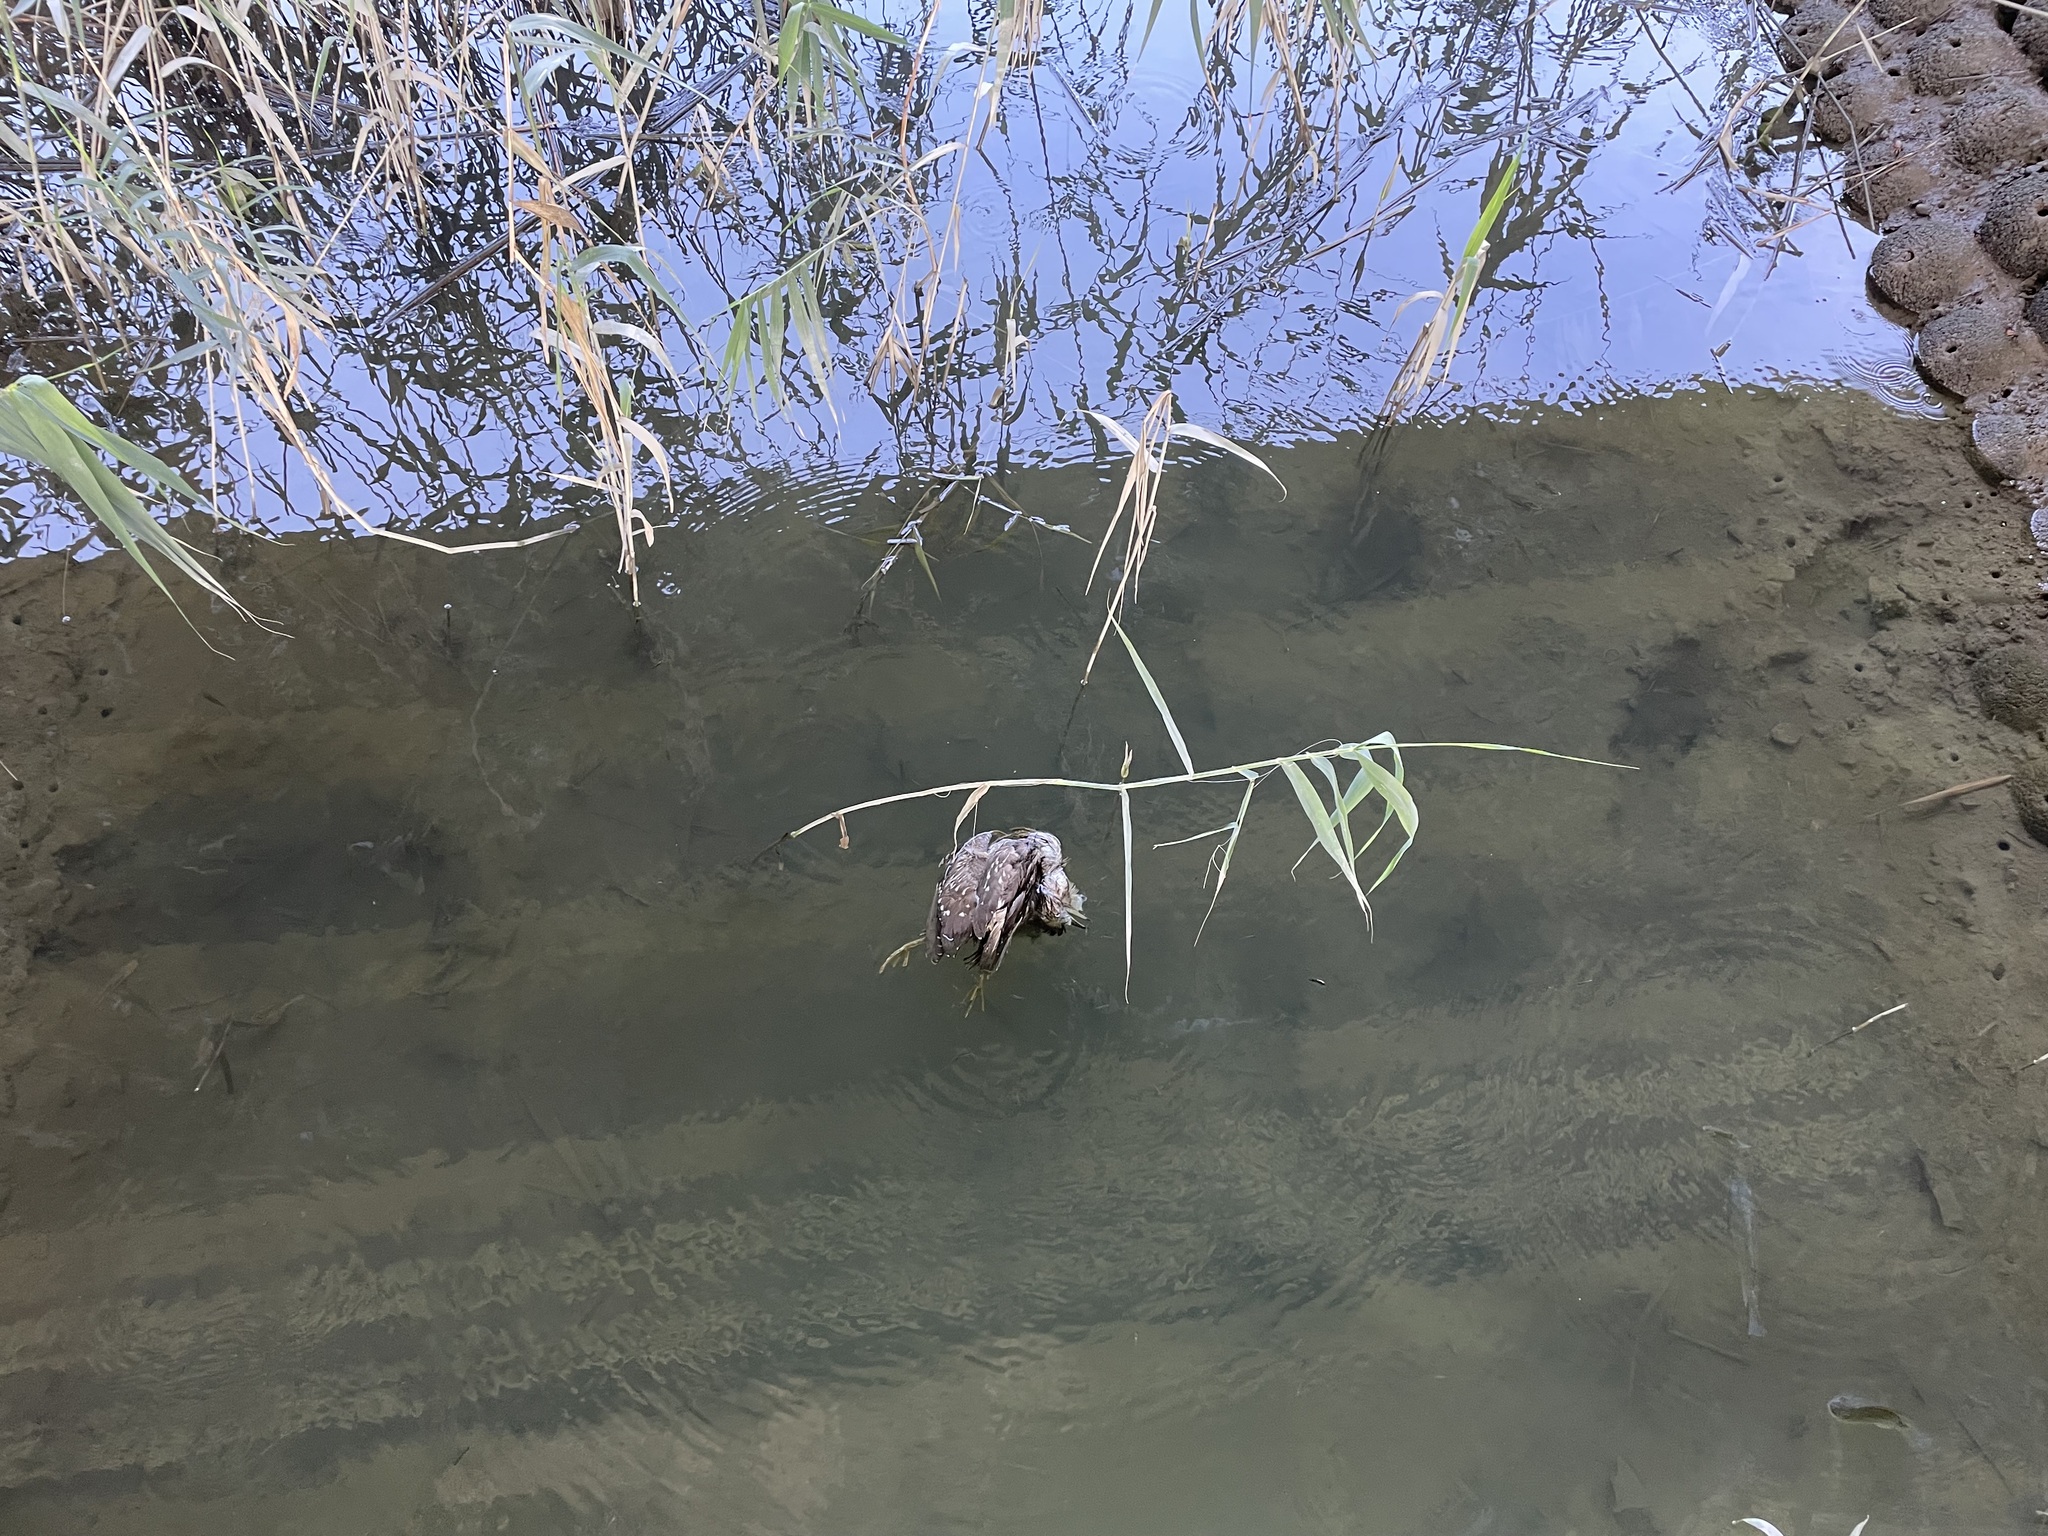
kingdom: Animalia
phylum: Chordata
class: Aves
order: Pelecaniformes
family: Ardeidae
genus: Nycticorax
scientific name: Nycticorax nycticorax
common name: Black-crowned night heron
